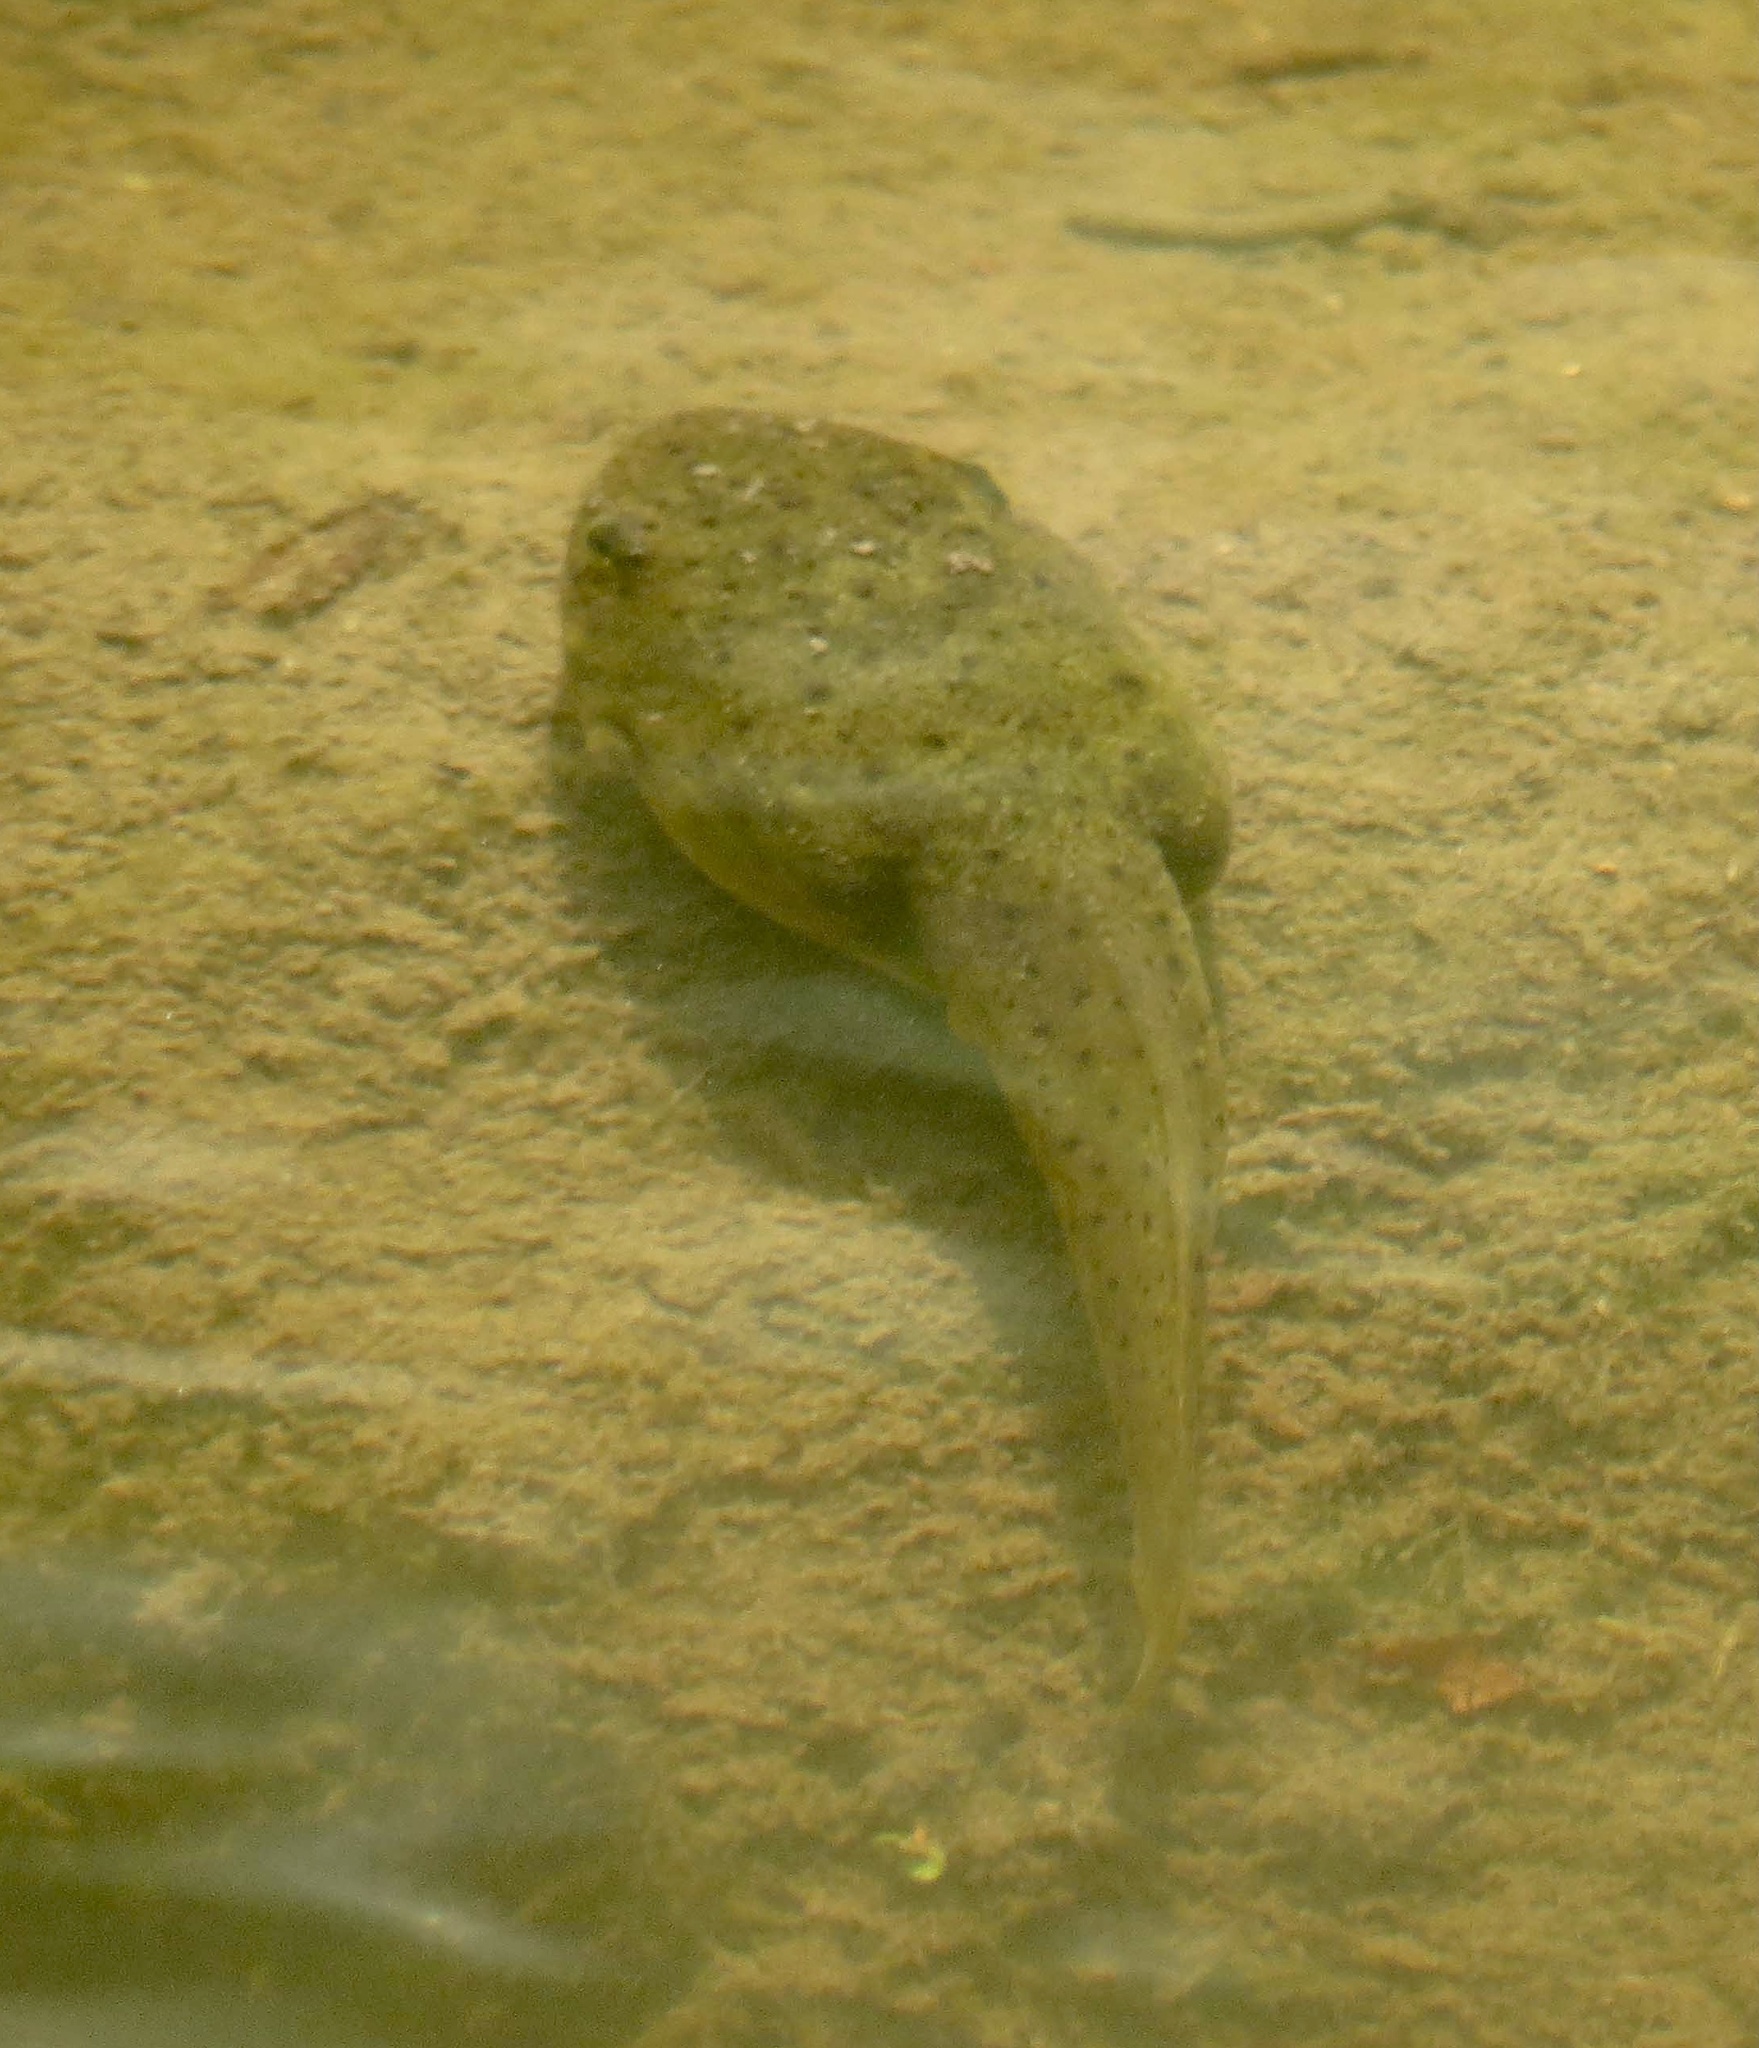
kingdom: Animalia
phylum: Chordata
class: Amphibia
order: Anura
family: Ranidae
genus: Lithobates
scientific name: Lithobates catesbeianus
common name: American bullfrog
